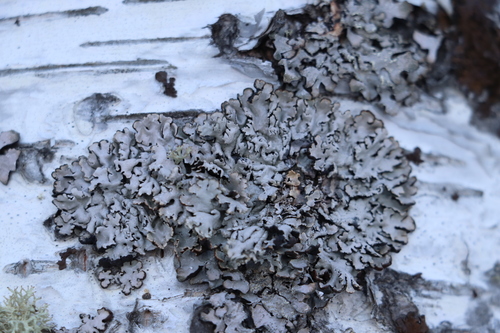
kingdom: Fungi
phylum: Ascomycota
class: Lecanoromycetes
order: Lecanorales
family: Parmeliaceae
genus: Hypogymnia
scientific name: Hypogymnia physodes
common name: Dark crottle
